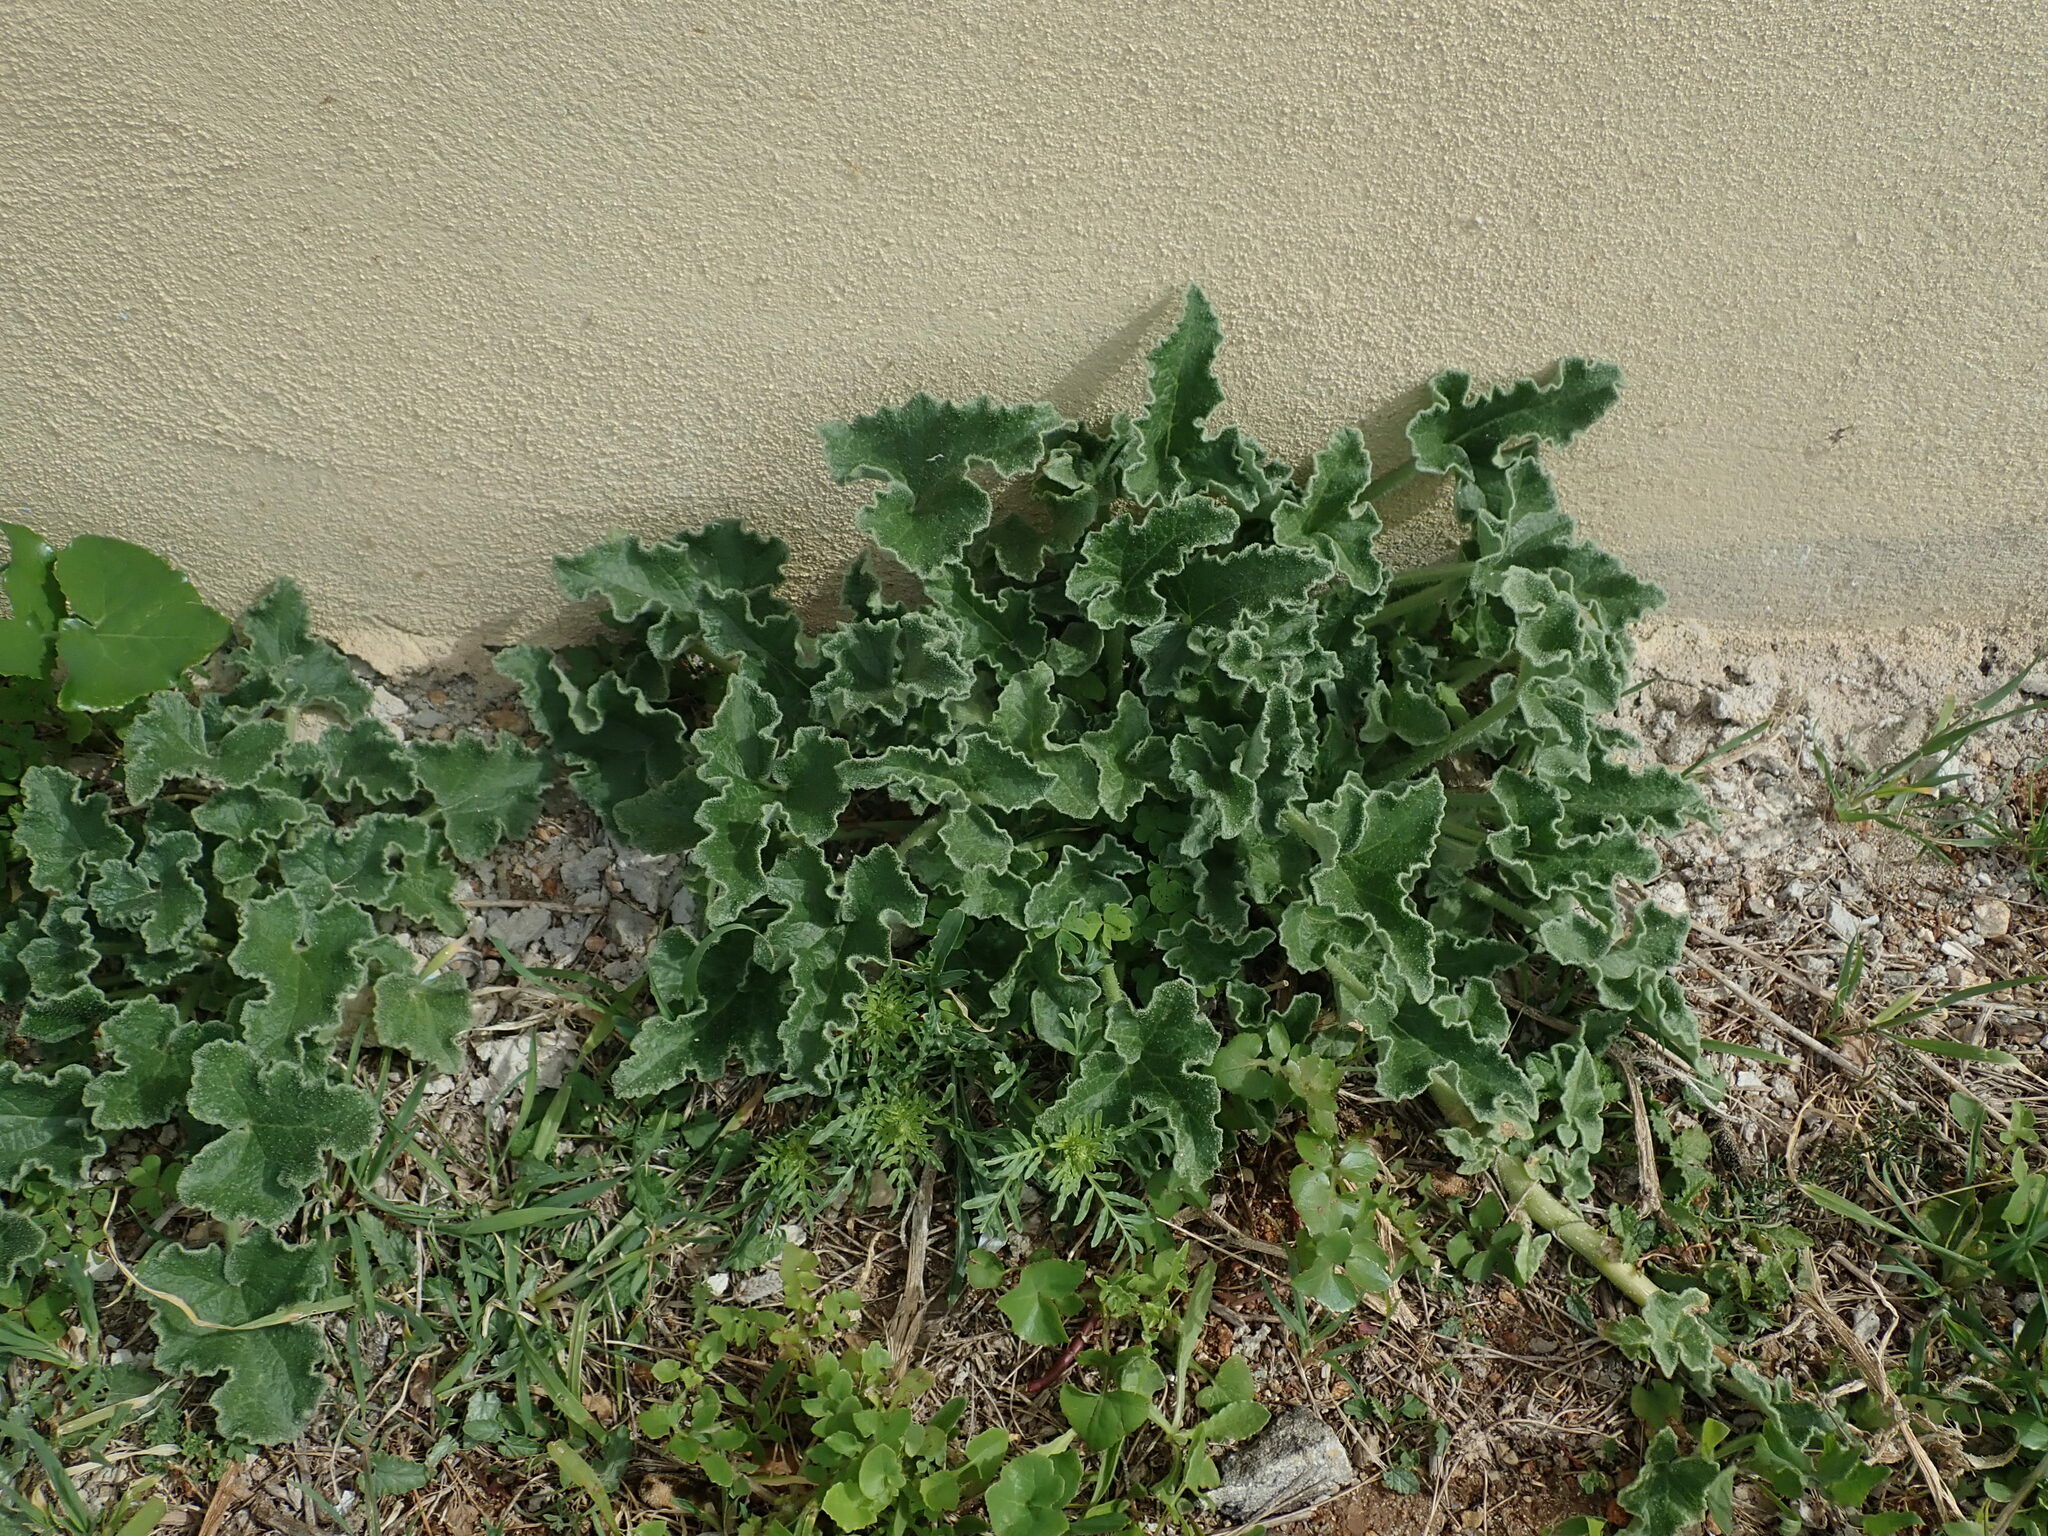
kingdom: Plantae
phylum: Tracheophyta
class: Magnoliopsida
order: Cucurbitales
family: Cucurbitaceae
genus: Ecballium
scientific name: Ecballium elaterium
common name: Squirting cucumber
